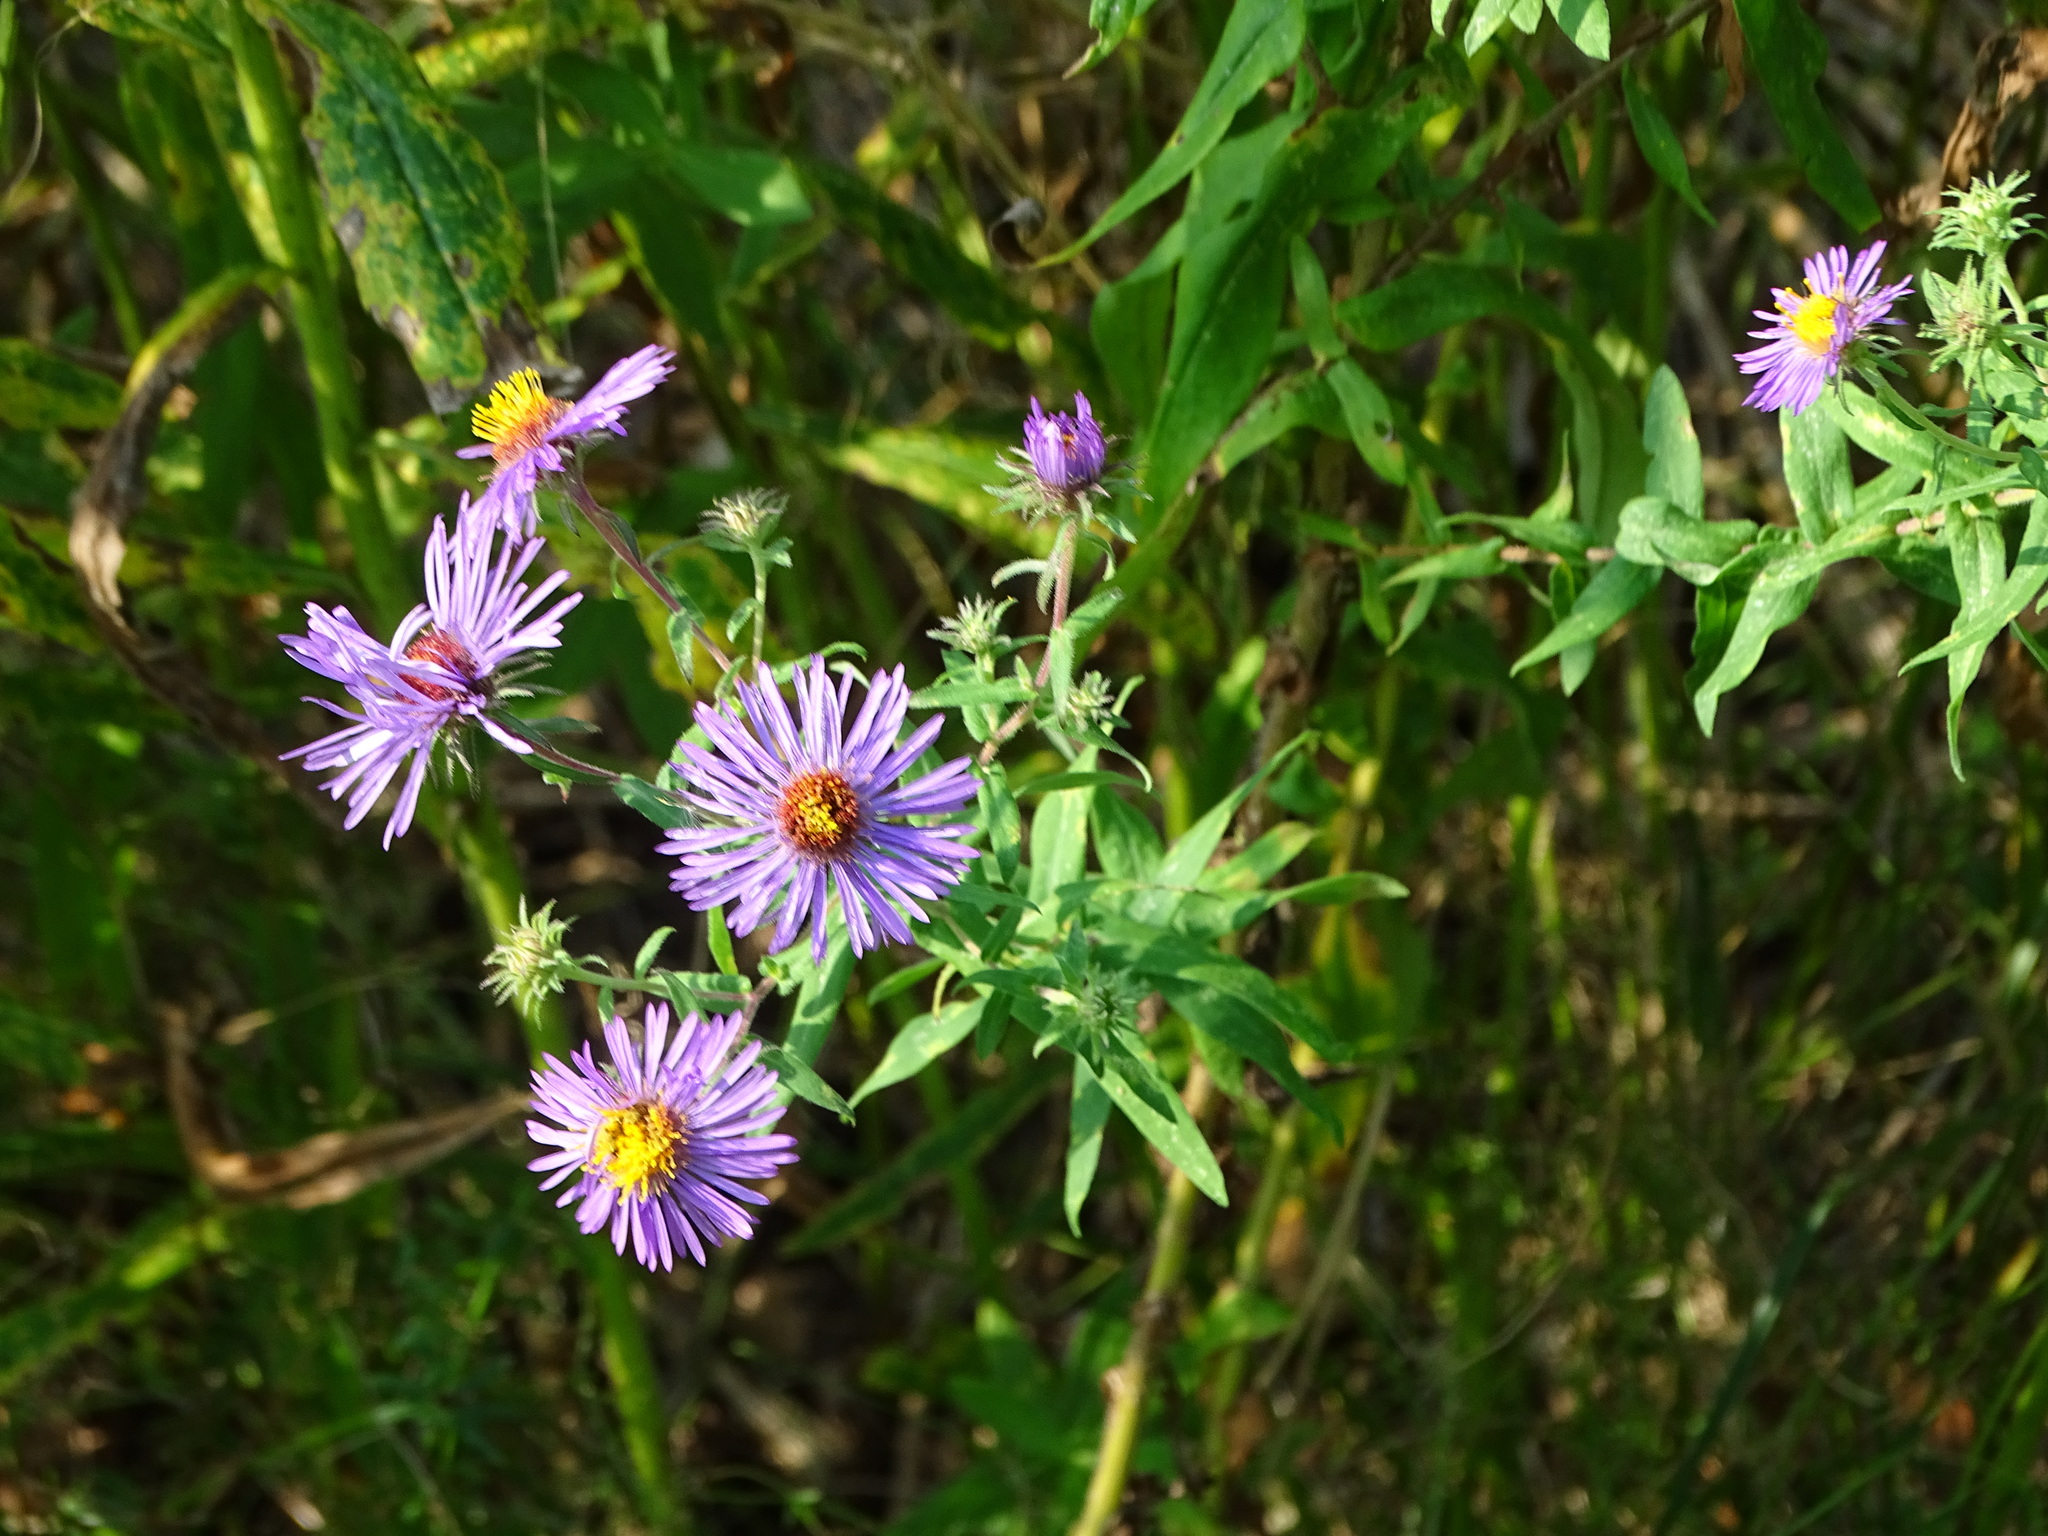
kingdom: Plantae
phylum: Tracheophyta
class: Magnoliopsida
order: Asterales
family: Asteraceae
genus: Symphyotrichum
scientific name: Symphyotrichum novae-angliae
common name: Michaelmas daisy
